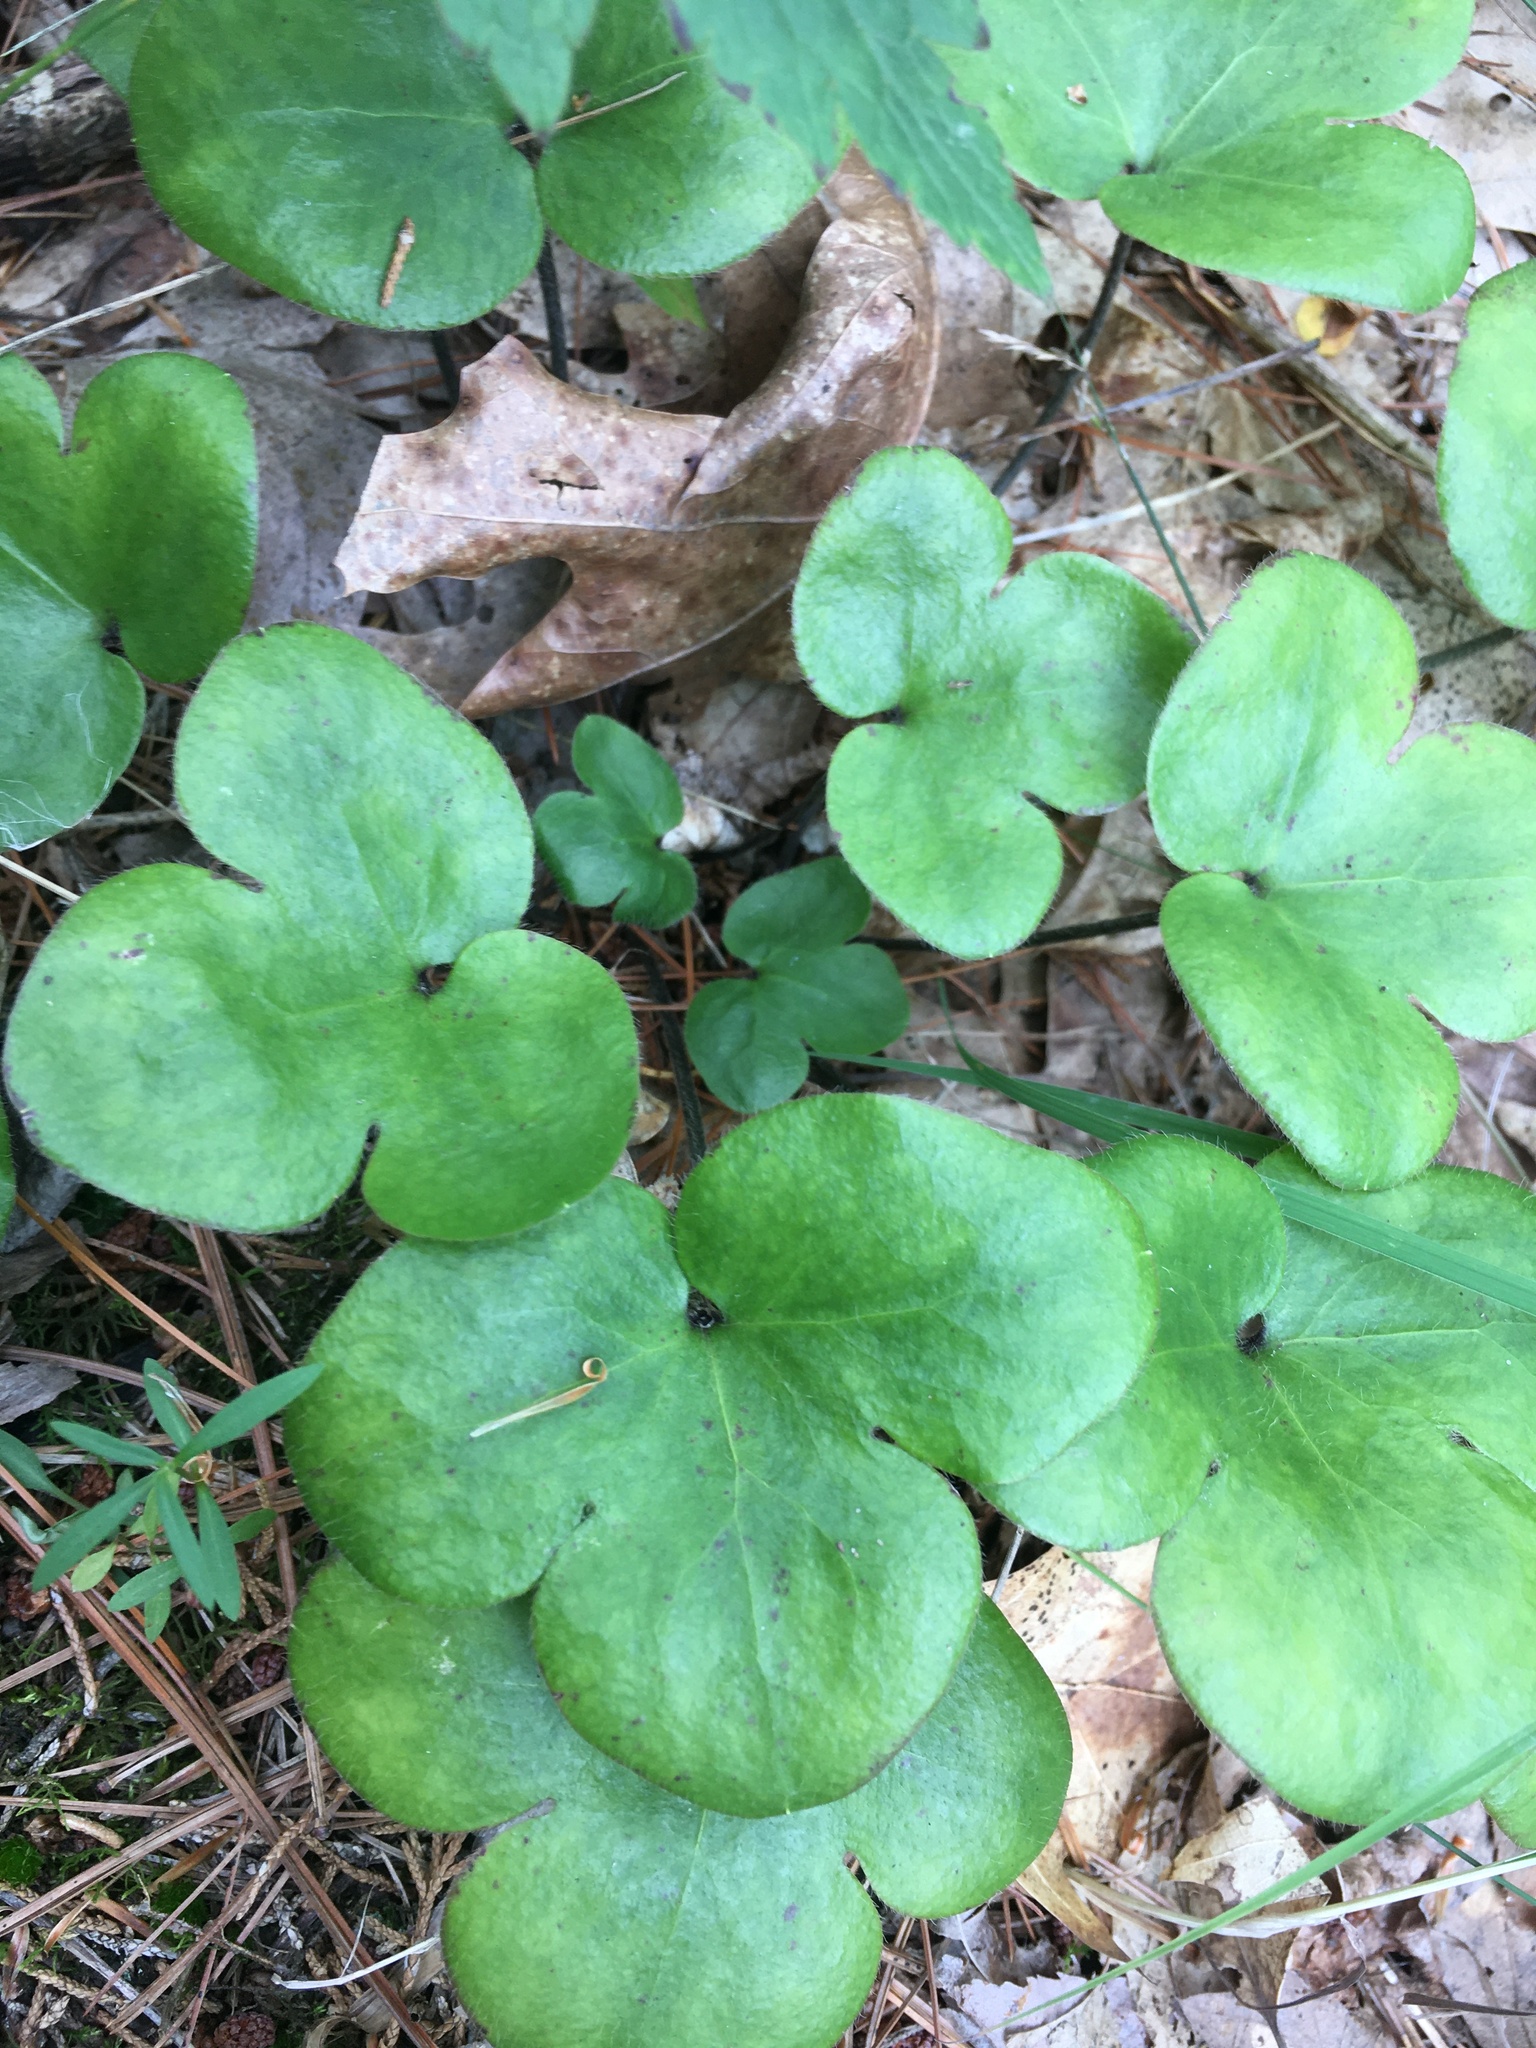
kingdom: Plantae
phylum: Tracheophyta
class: Magnoliopsida
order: Ranunculales
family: Ranunculaceae
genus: Hepatica
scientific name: Hepatica americana
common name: American hepatica
